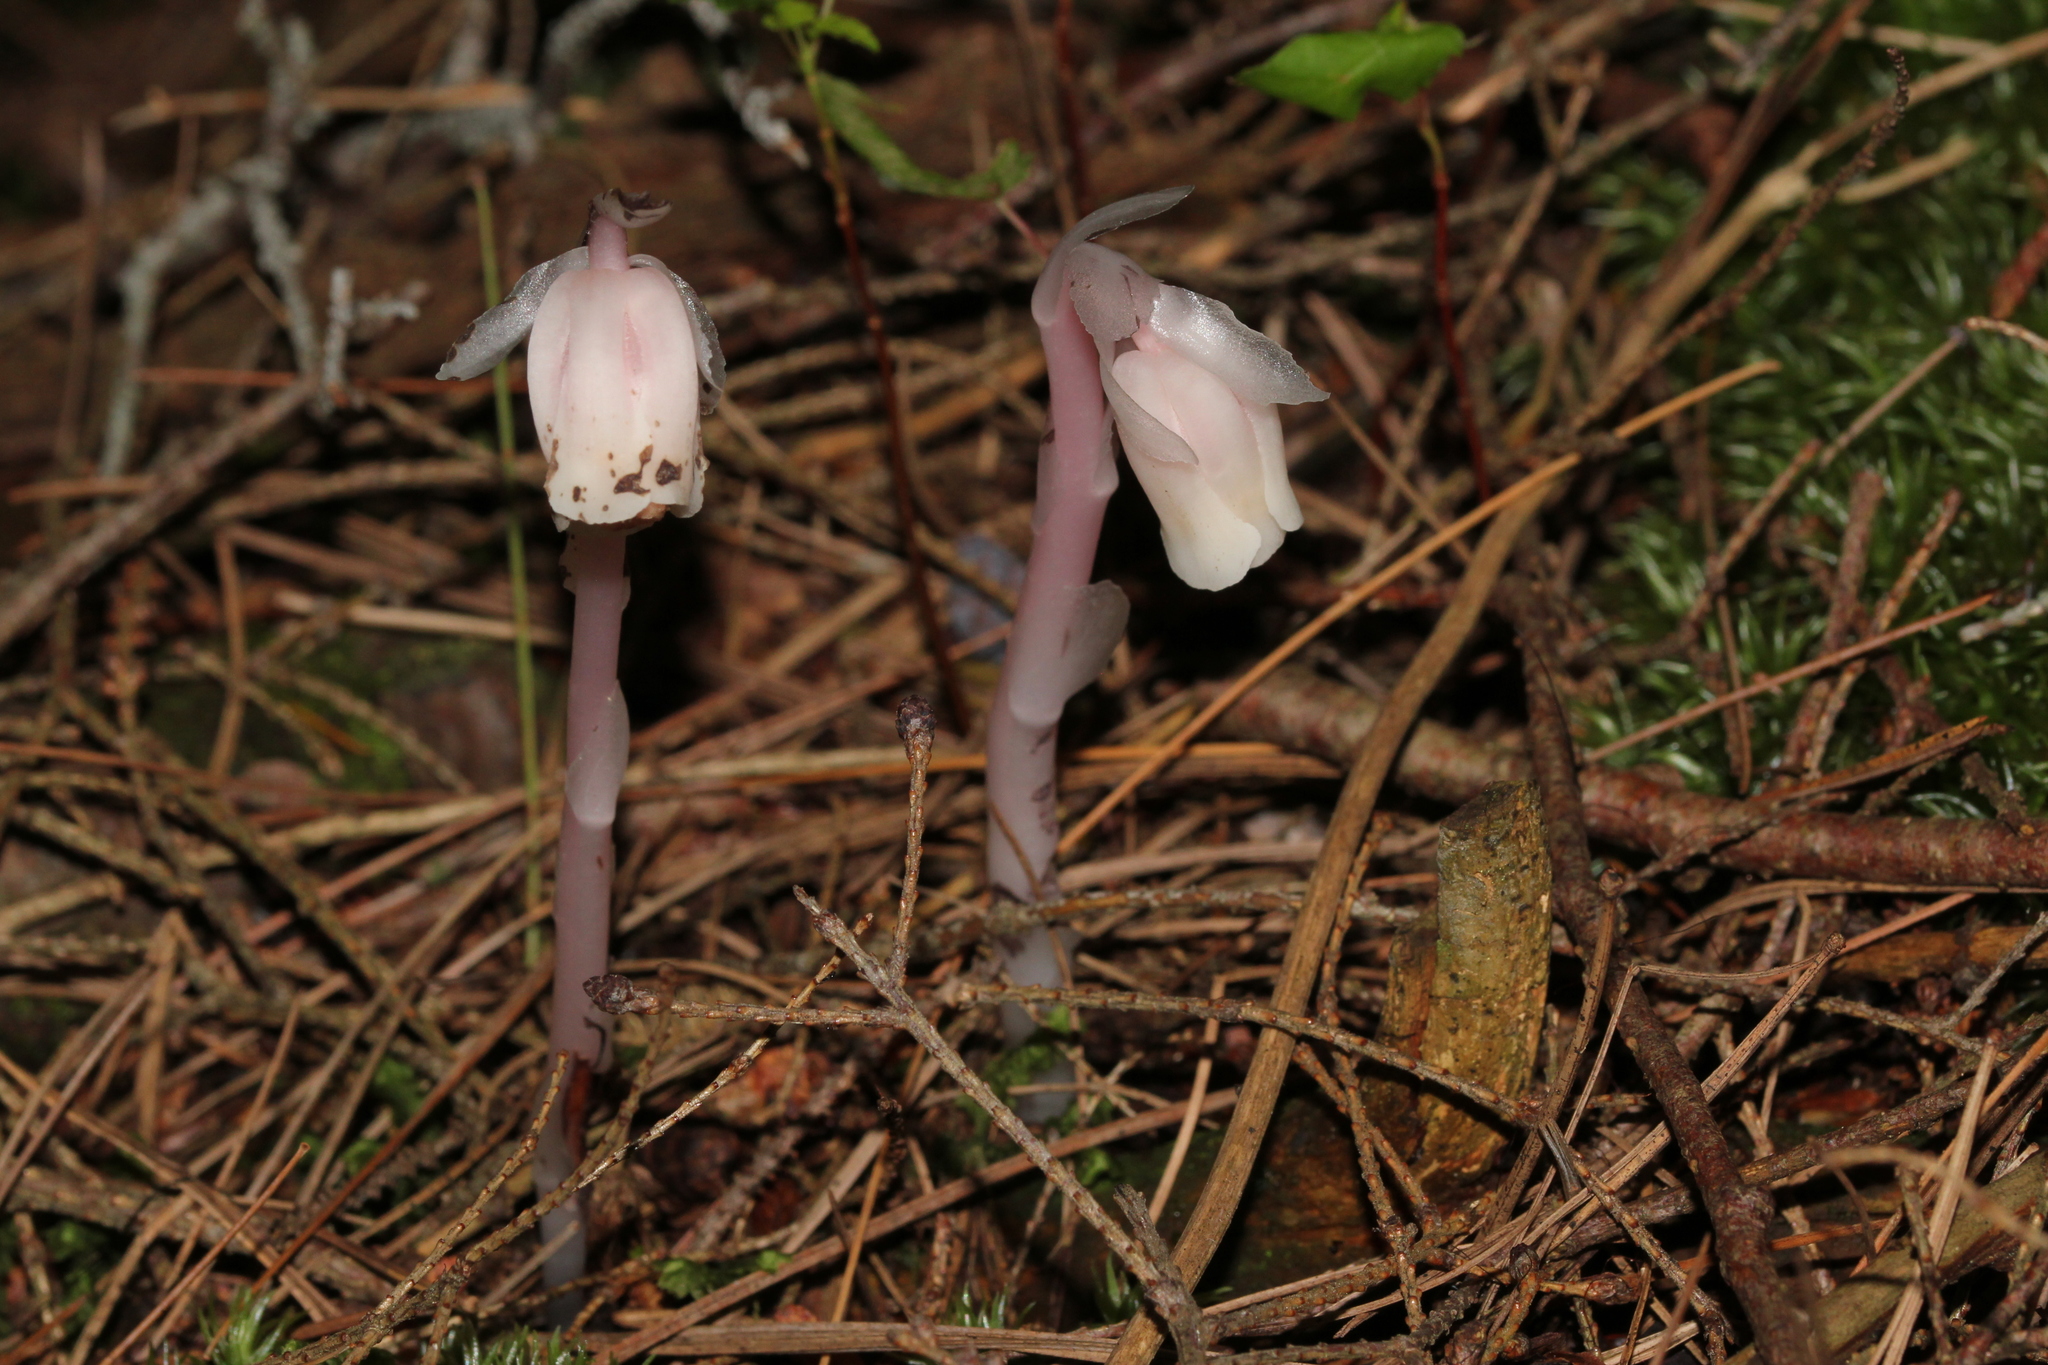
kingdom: Plantae
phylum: Tracheophyta
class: Magnoliopsida
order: Ericales
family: Ericaceae
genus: Monotropa
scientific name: Monotropa uniflora
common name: Convulsion root
